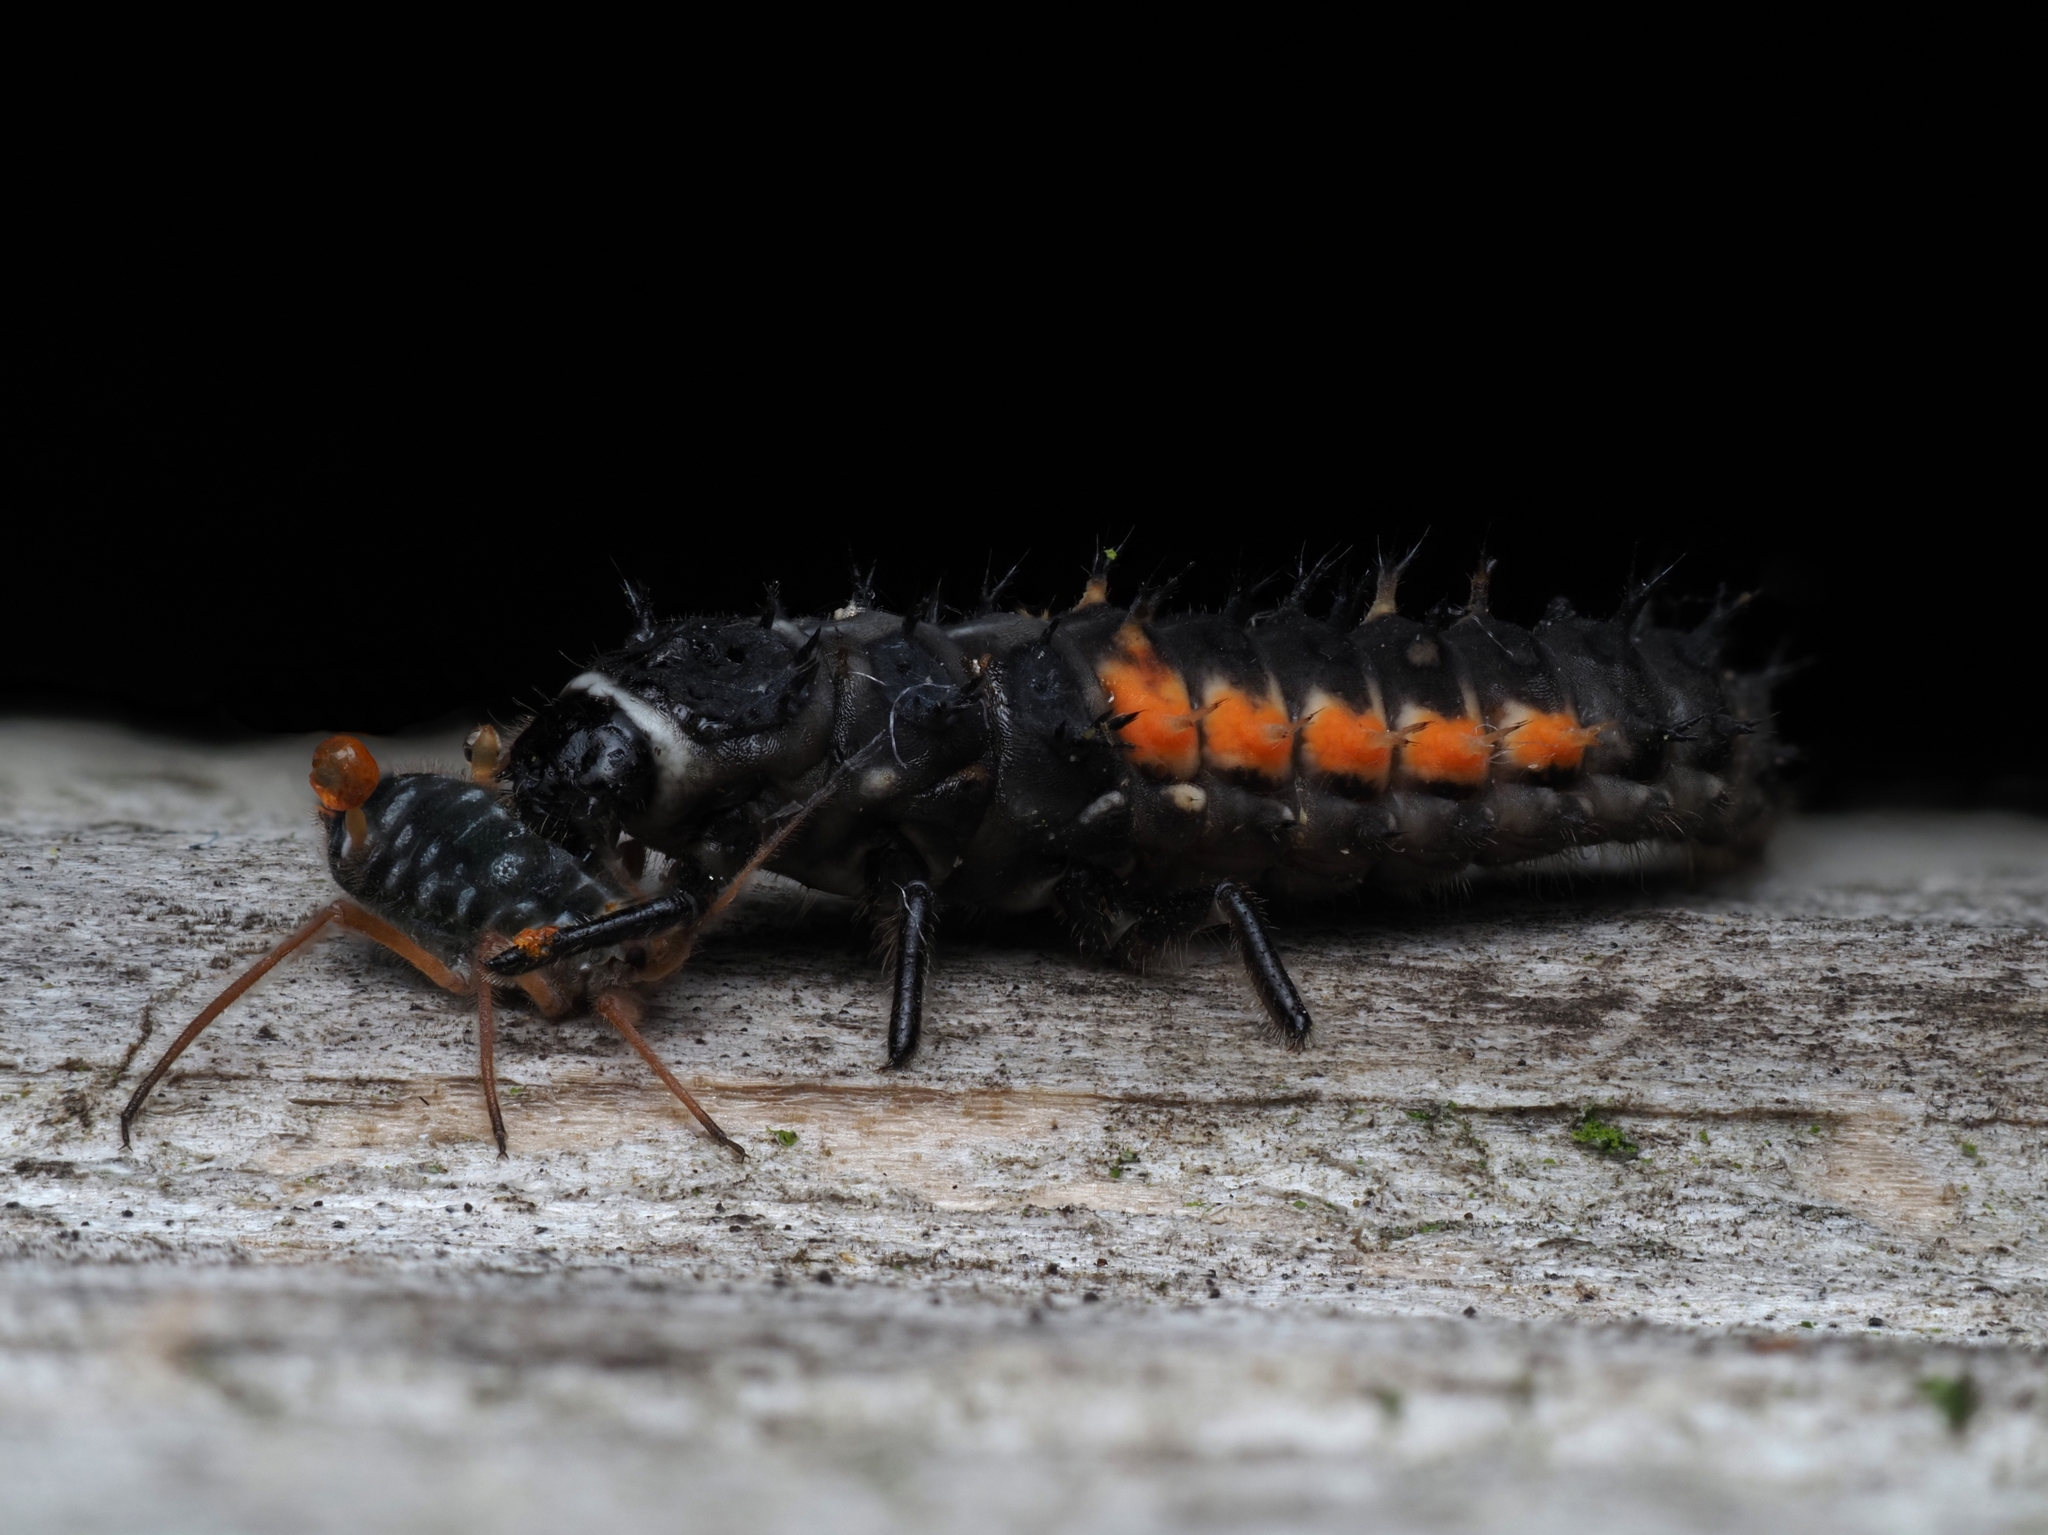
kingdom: Animalia
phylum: Arthropoda
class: Insecta
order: Coleoptera
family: Coccinellidae
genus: Harmonia
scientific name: Harmonia axyridis
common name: Harlequin ladybird
